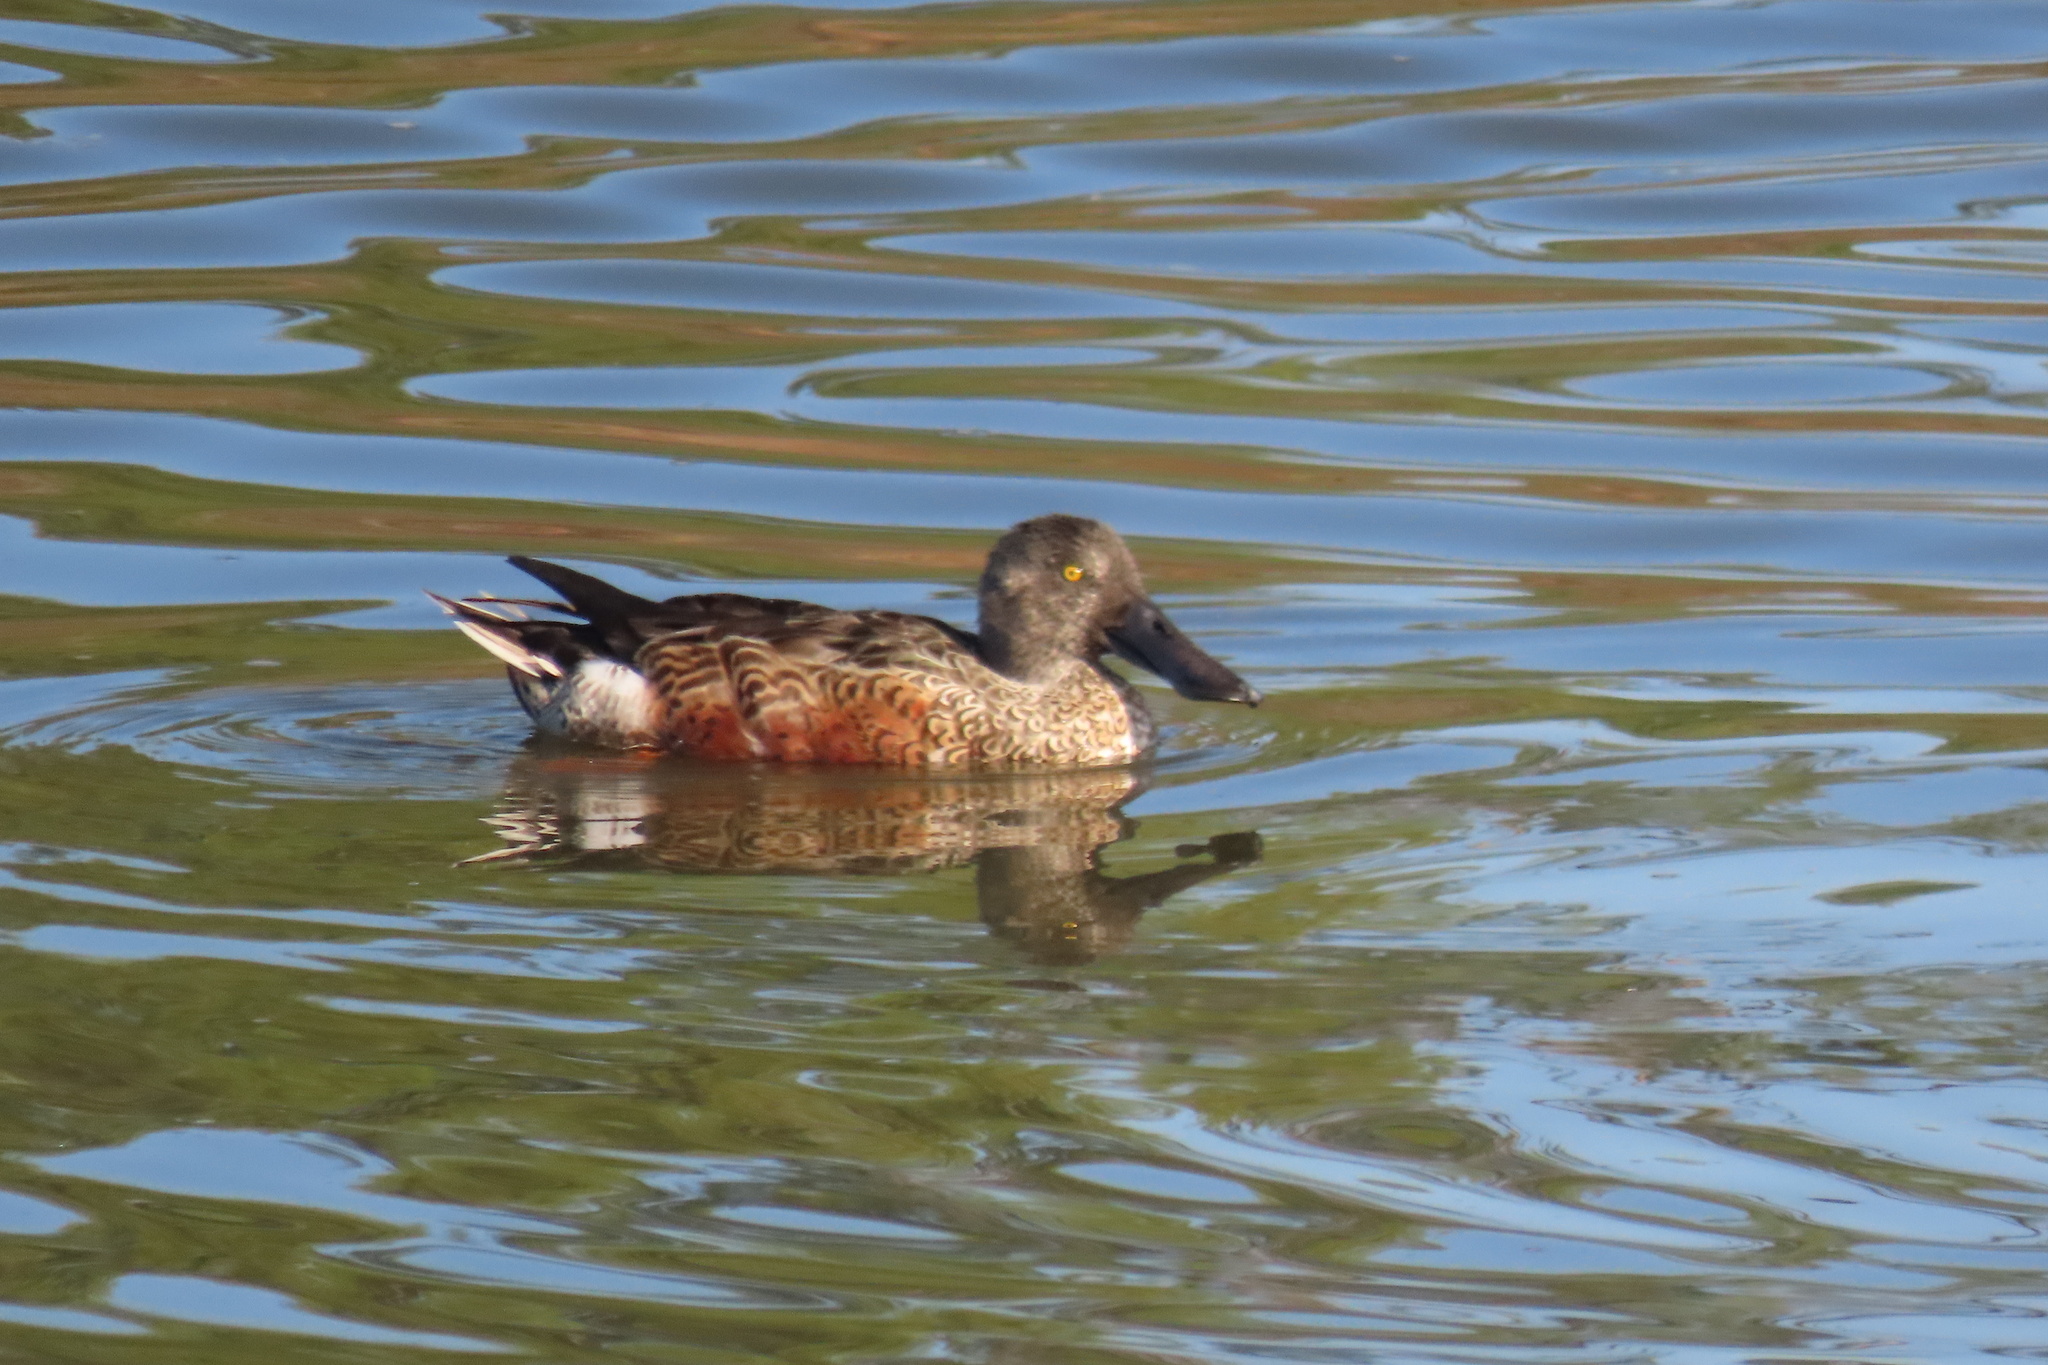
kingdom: Animalia
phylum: Chordata
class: Aves
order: Anseriformes
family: Anatidae
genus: Spatula
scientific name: Spatula clypeata
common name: Northern shoveler
